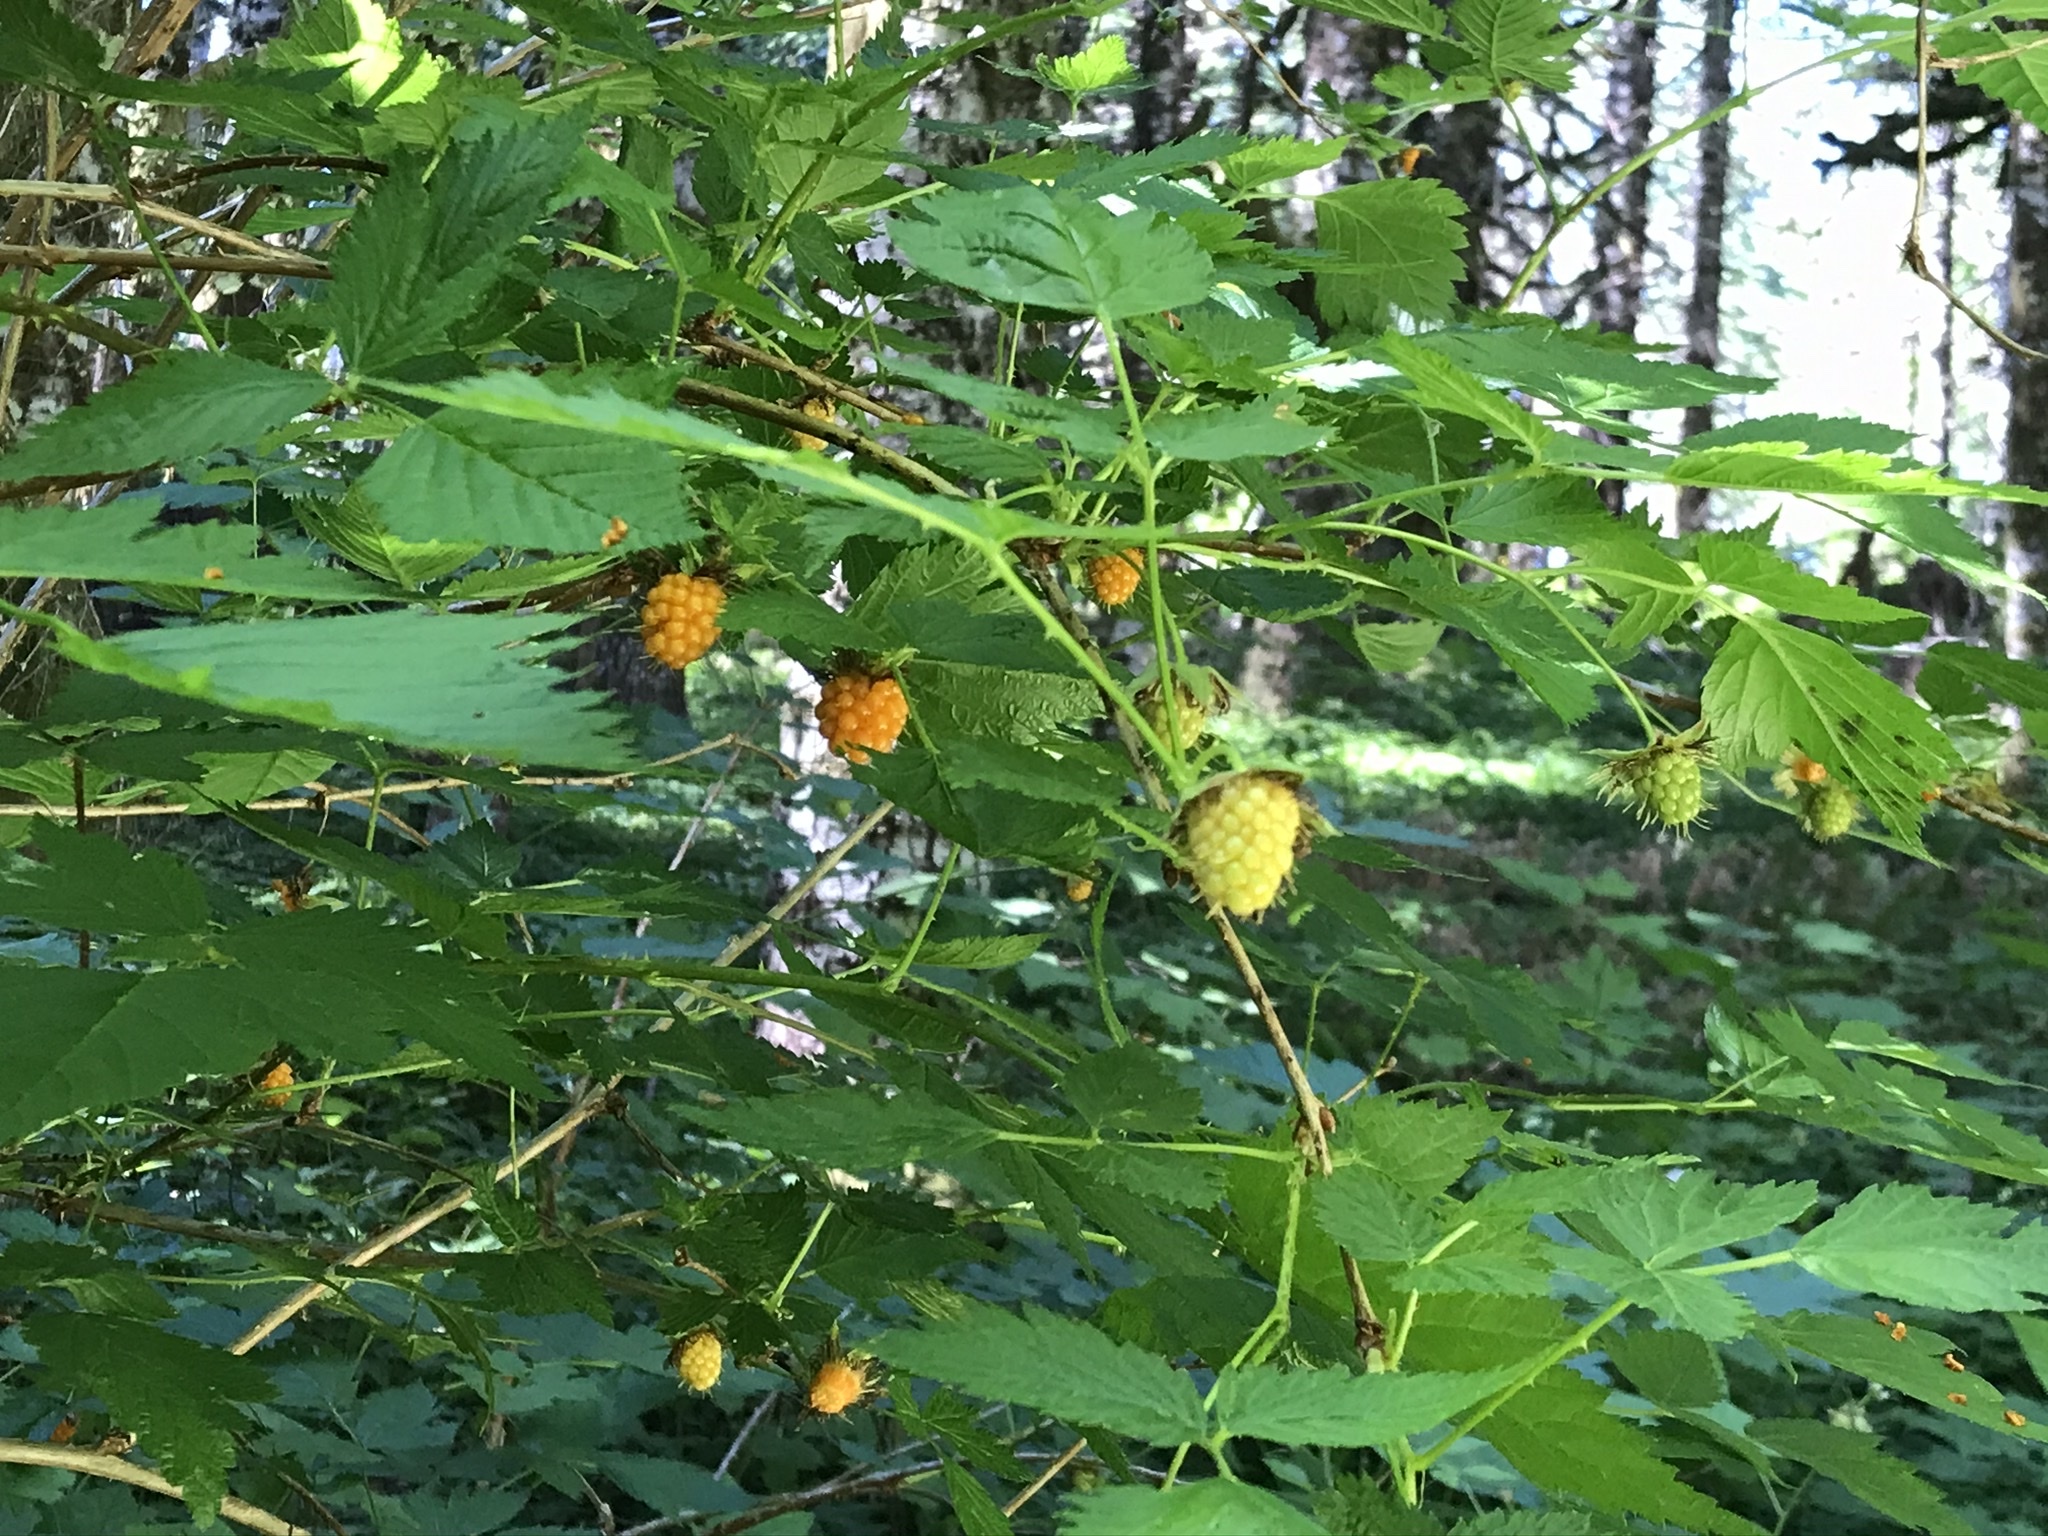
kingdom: Plantae
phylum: Tracheophyta
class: Magnoliopsida
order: Rosales
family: Rosaceae
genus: Rubus
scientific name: Rubus spectabilis
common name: Salmonberry
